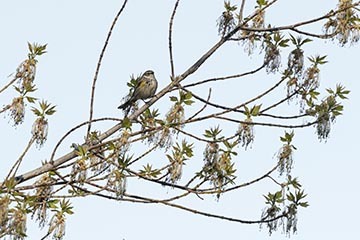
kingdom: Animalia
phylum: Chordata
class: Aves
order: Passeriformes
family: Parulidae
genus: Setophaga
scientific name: Setophaga coronata
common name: Myrtle warbler
